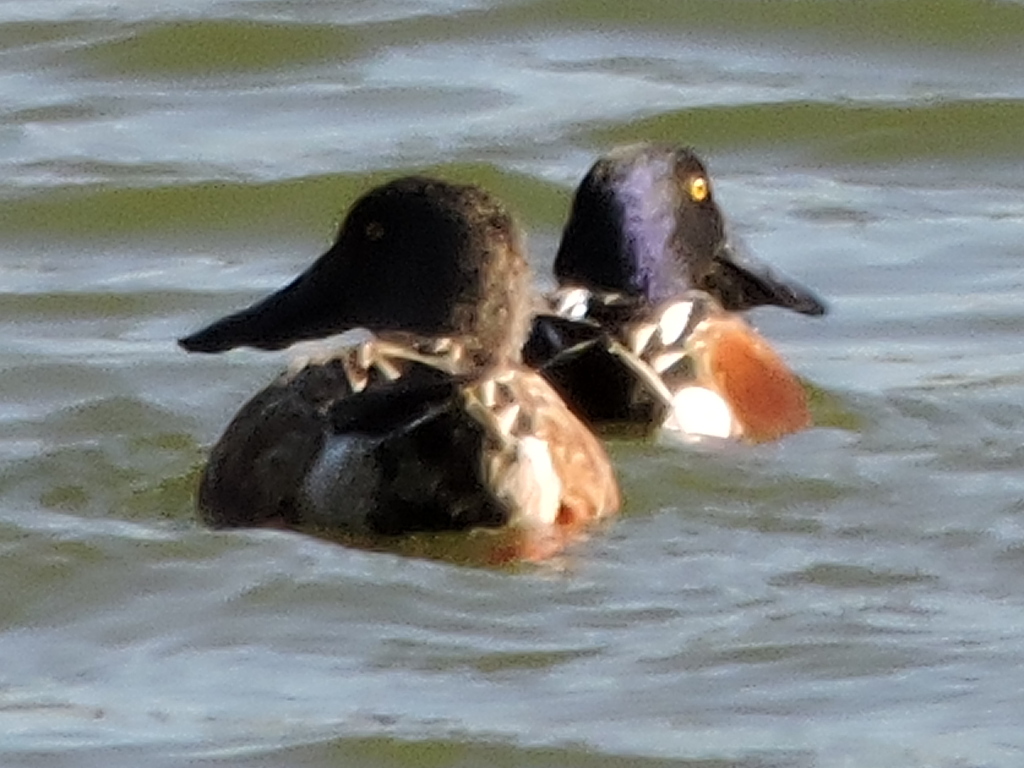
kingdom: Animalia
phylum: Chordata
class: Aves
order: Anseriformes
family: Anatidae
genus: Spatula
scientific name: Spatula clypeata
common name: Northern shoveler
